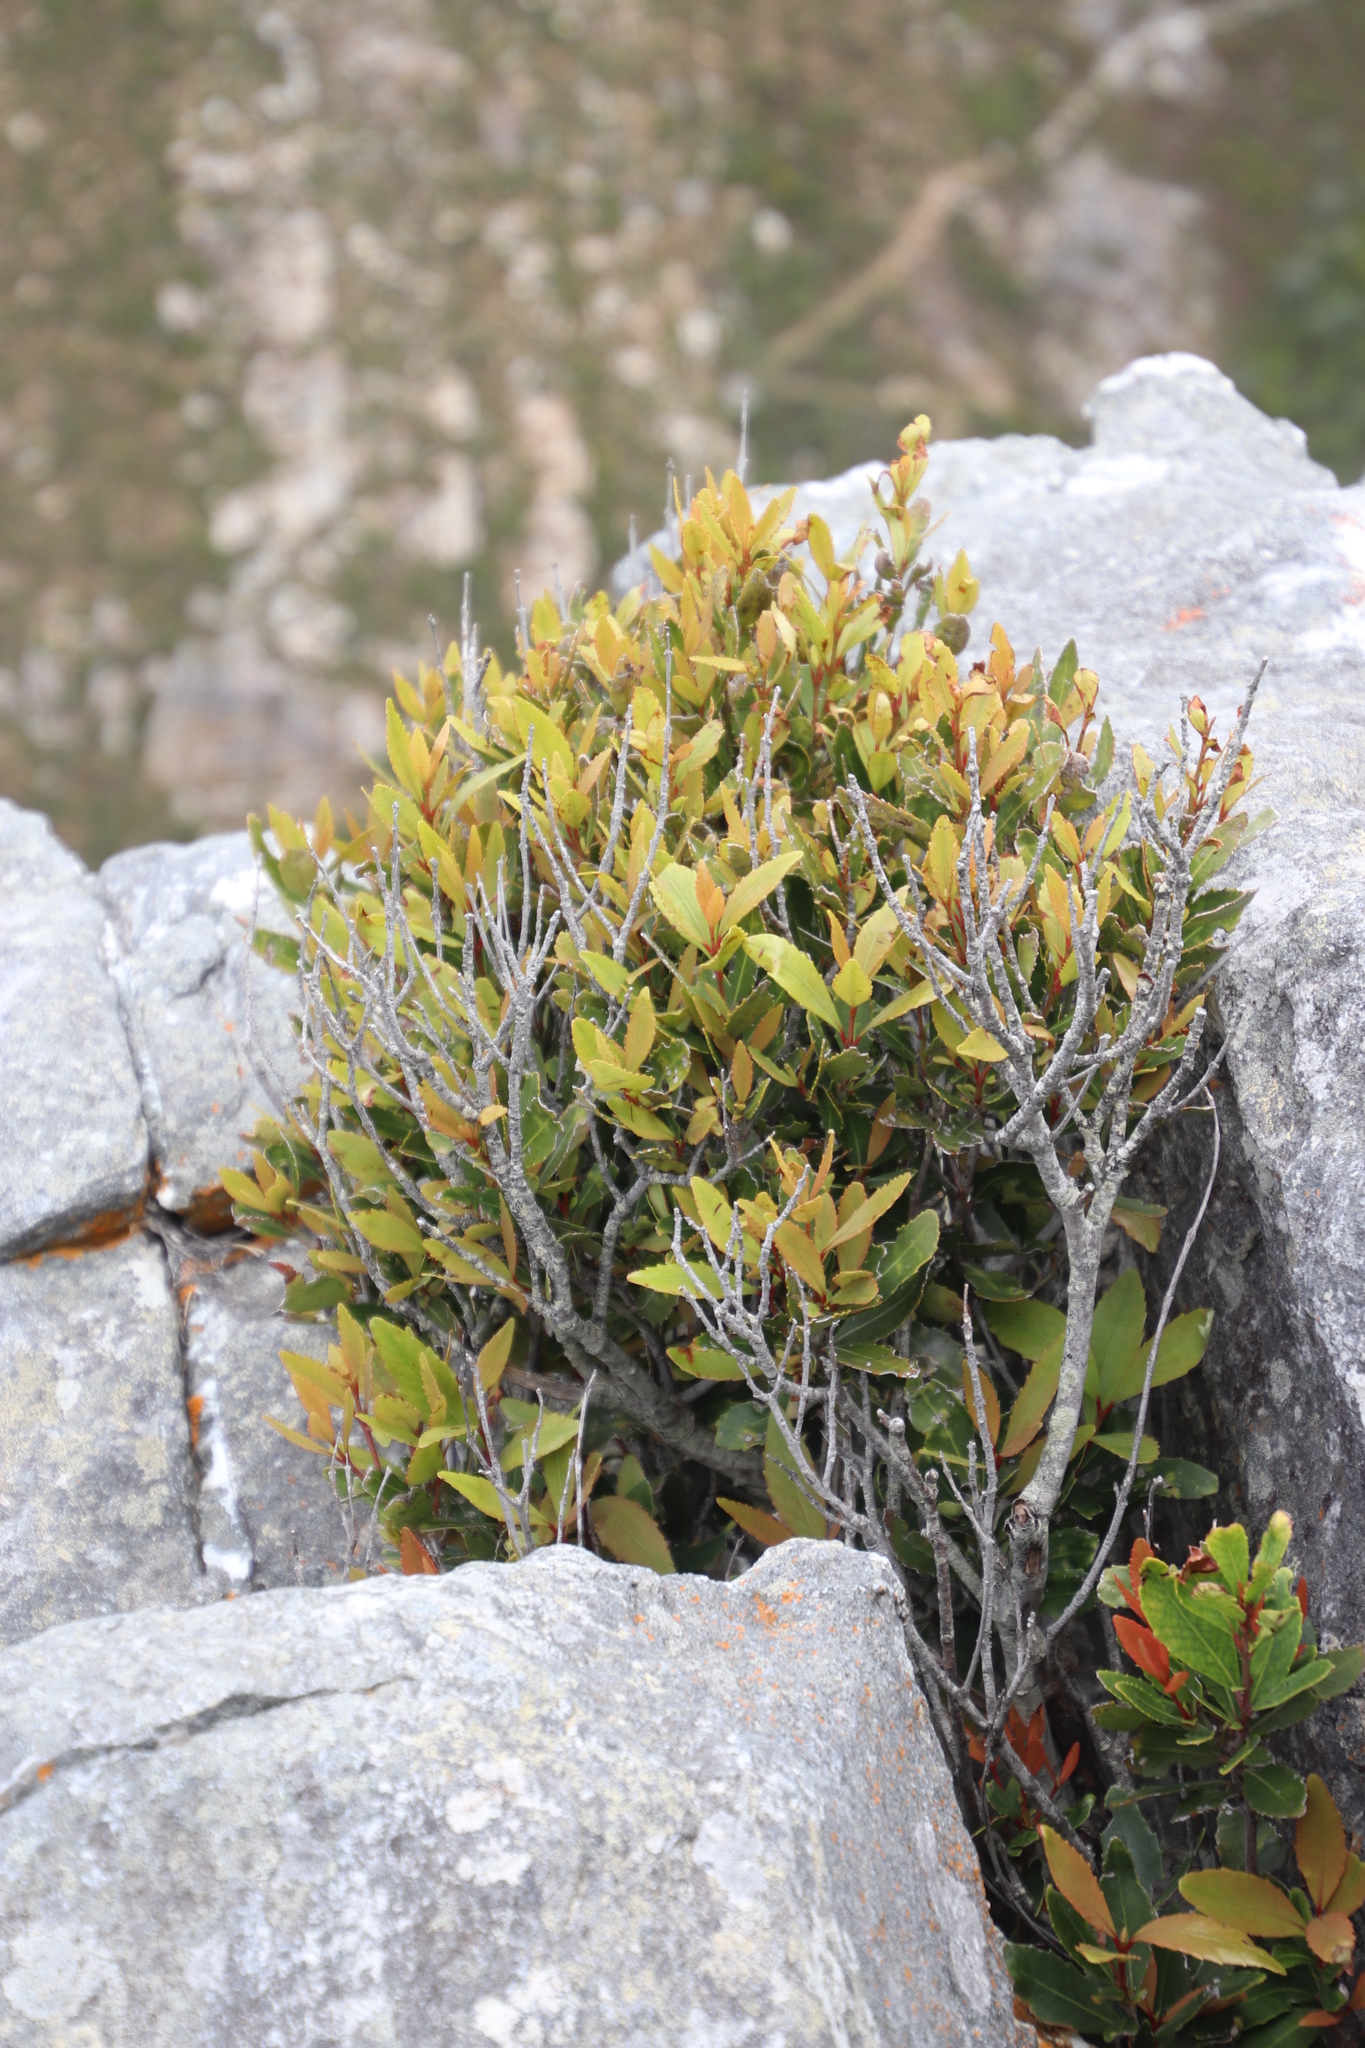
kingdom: Plantae
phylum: Tracheophyta
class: Magnoliopsida
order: Celastrales
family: Celastraceae
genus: Elaeodendron
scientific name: Elaeodendron schinoides
